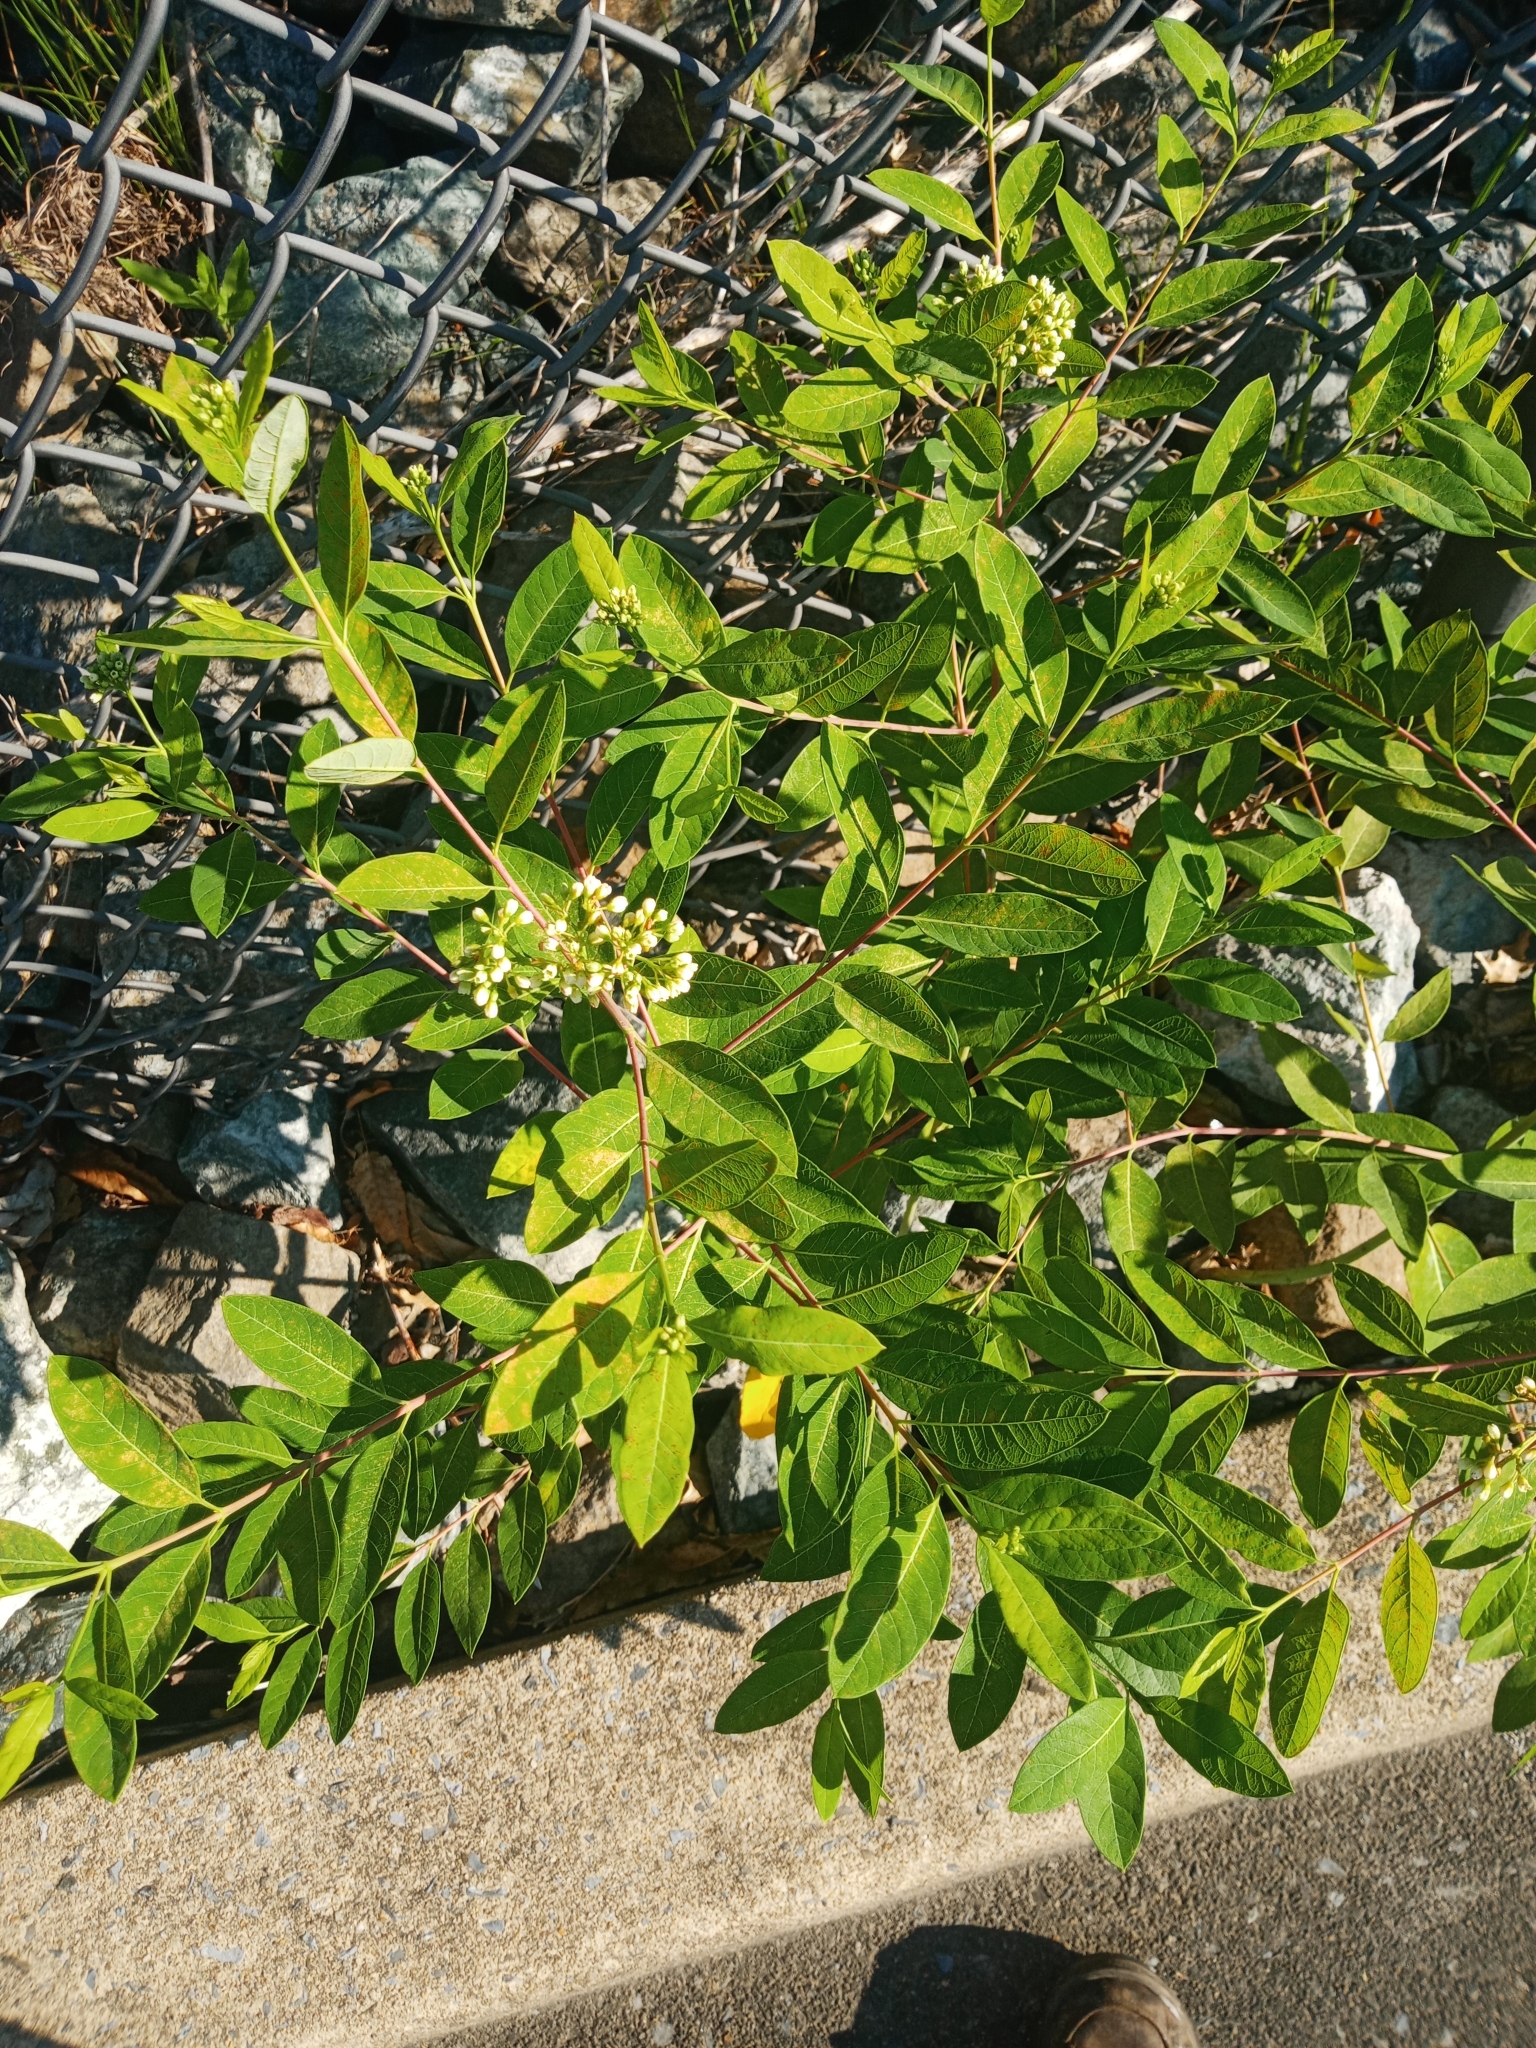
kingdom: Plantae
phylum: Tracheophyta
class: Magnoliopsida
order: Gentianales
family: Apocynaceae
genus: Apocynum
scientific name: Apocynum cannabinum
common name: Hemp dogbane
